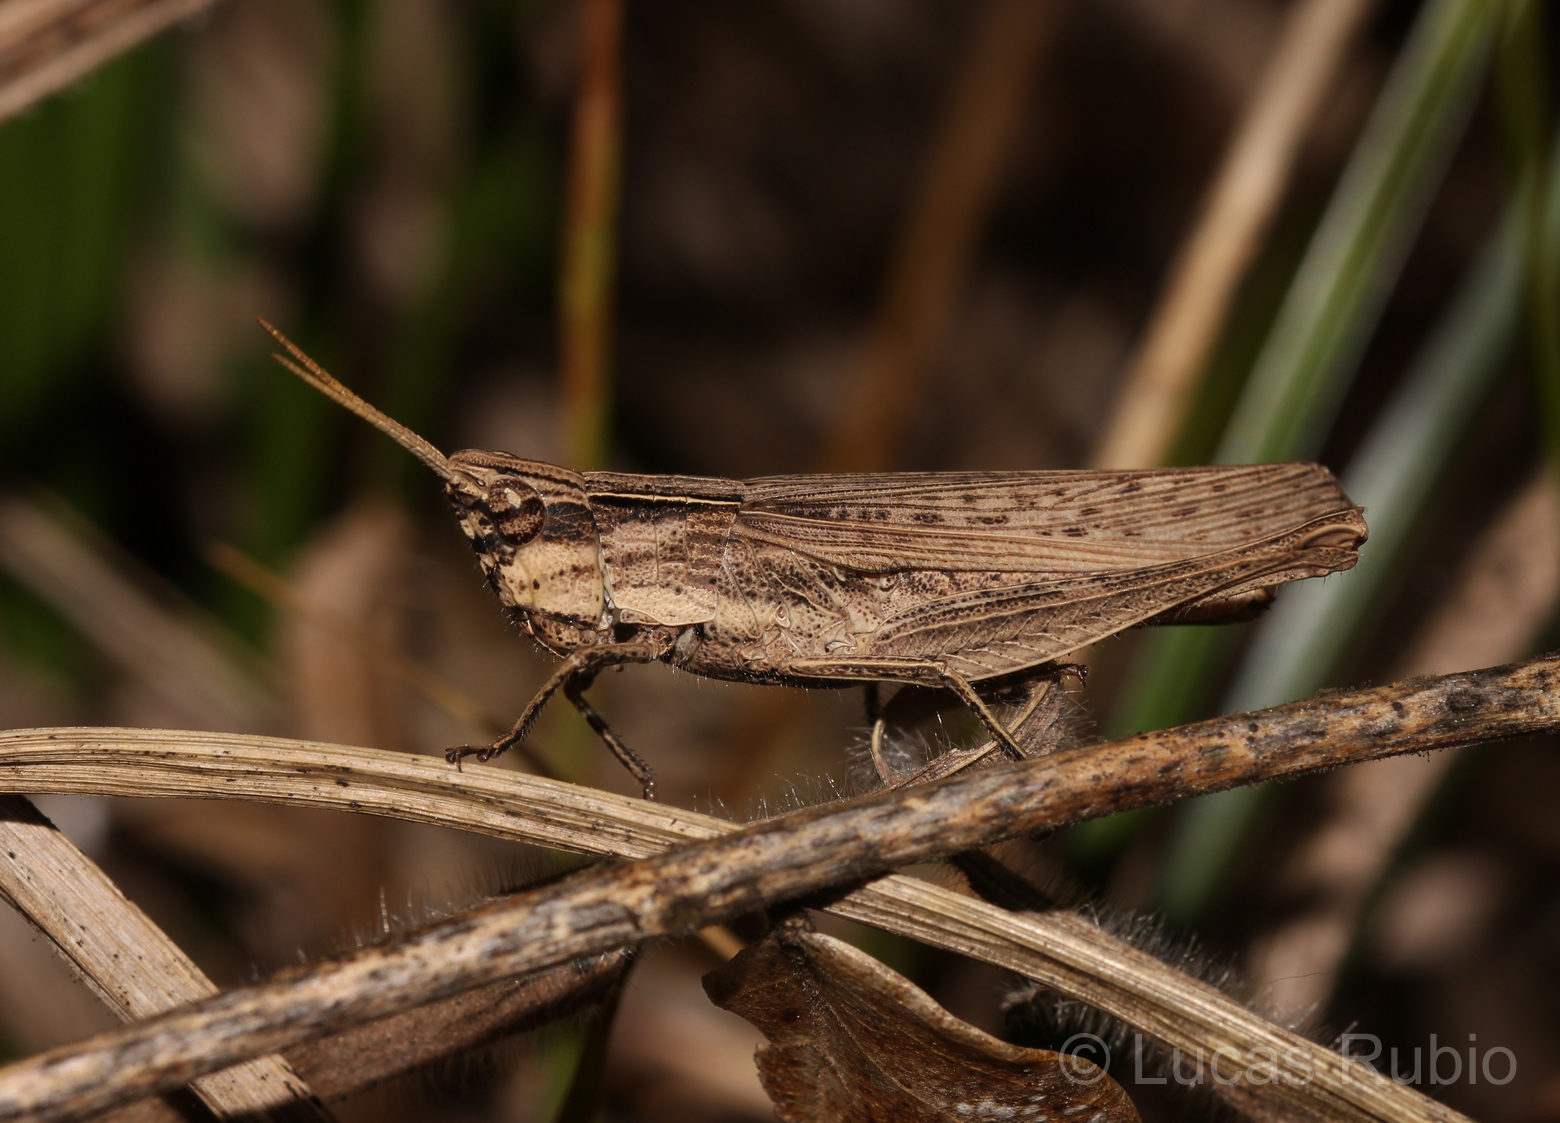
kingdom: Animalia
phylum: Arthropoda
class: Insecta
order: Orthoptera
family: Acrididae
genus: Eutryxalis
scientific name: Eutryxalis filata
